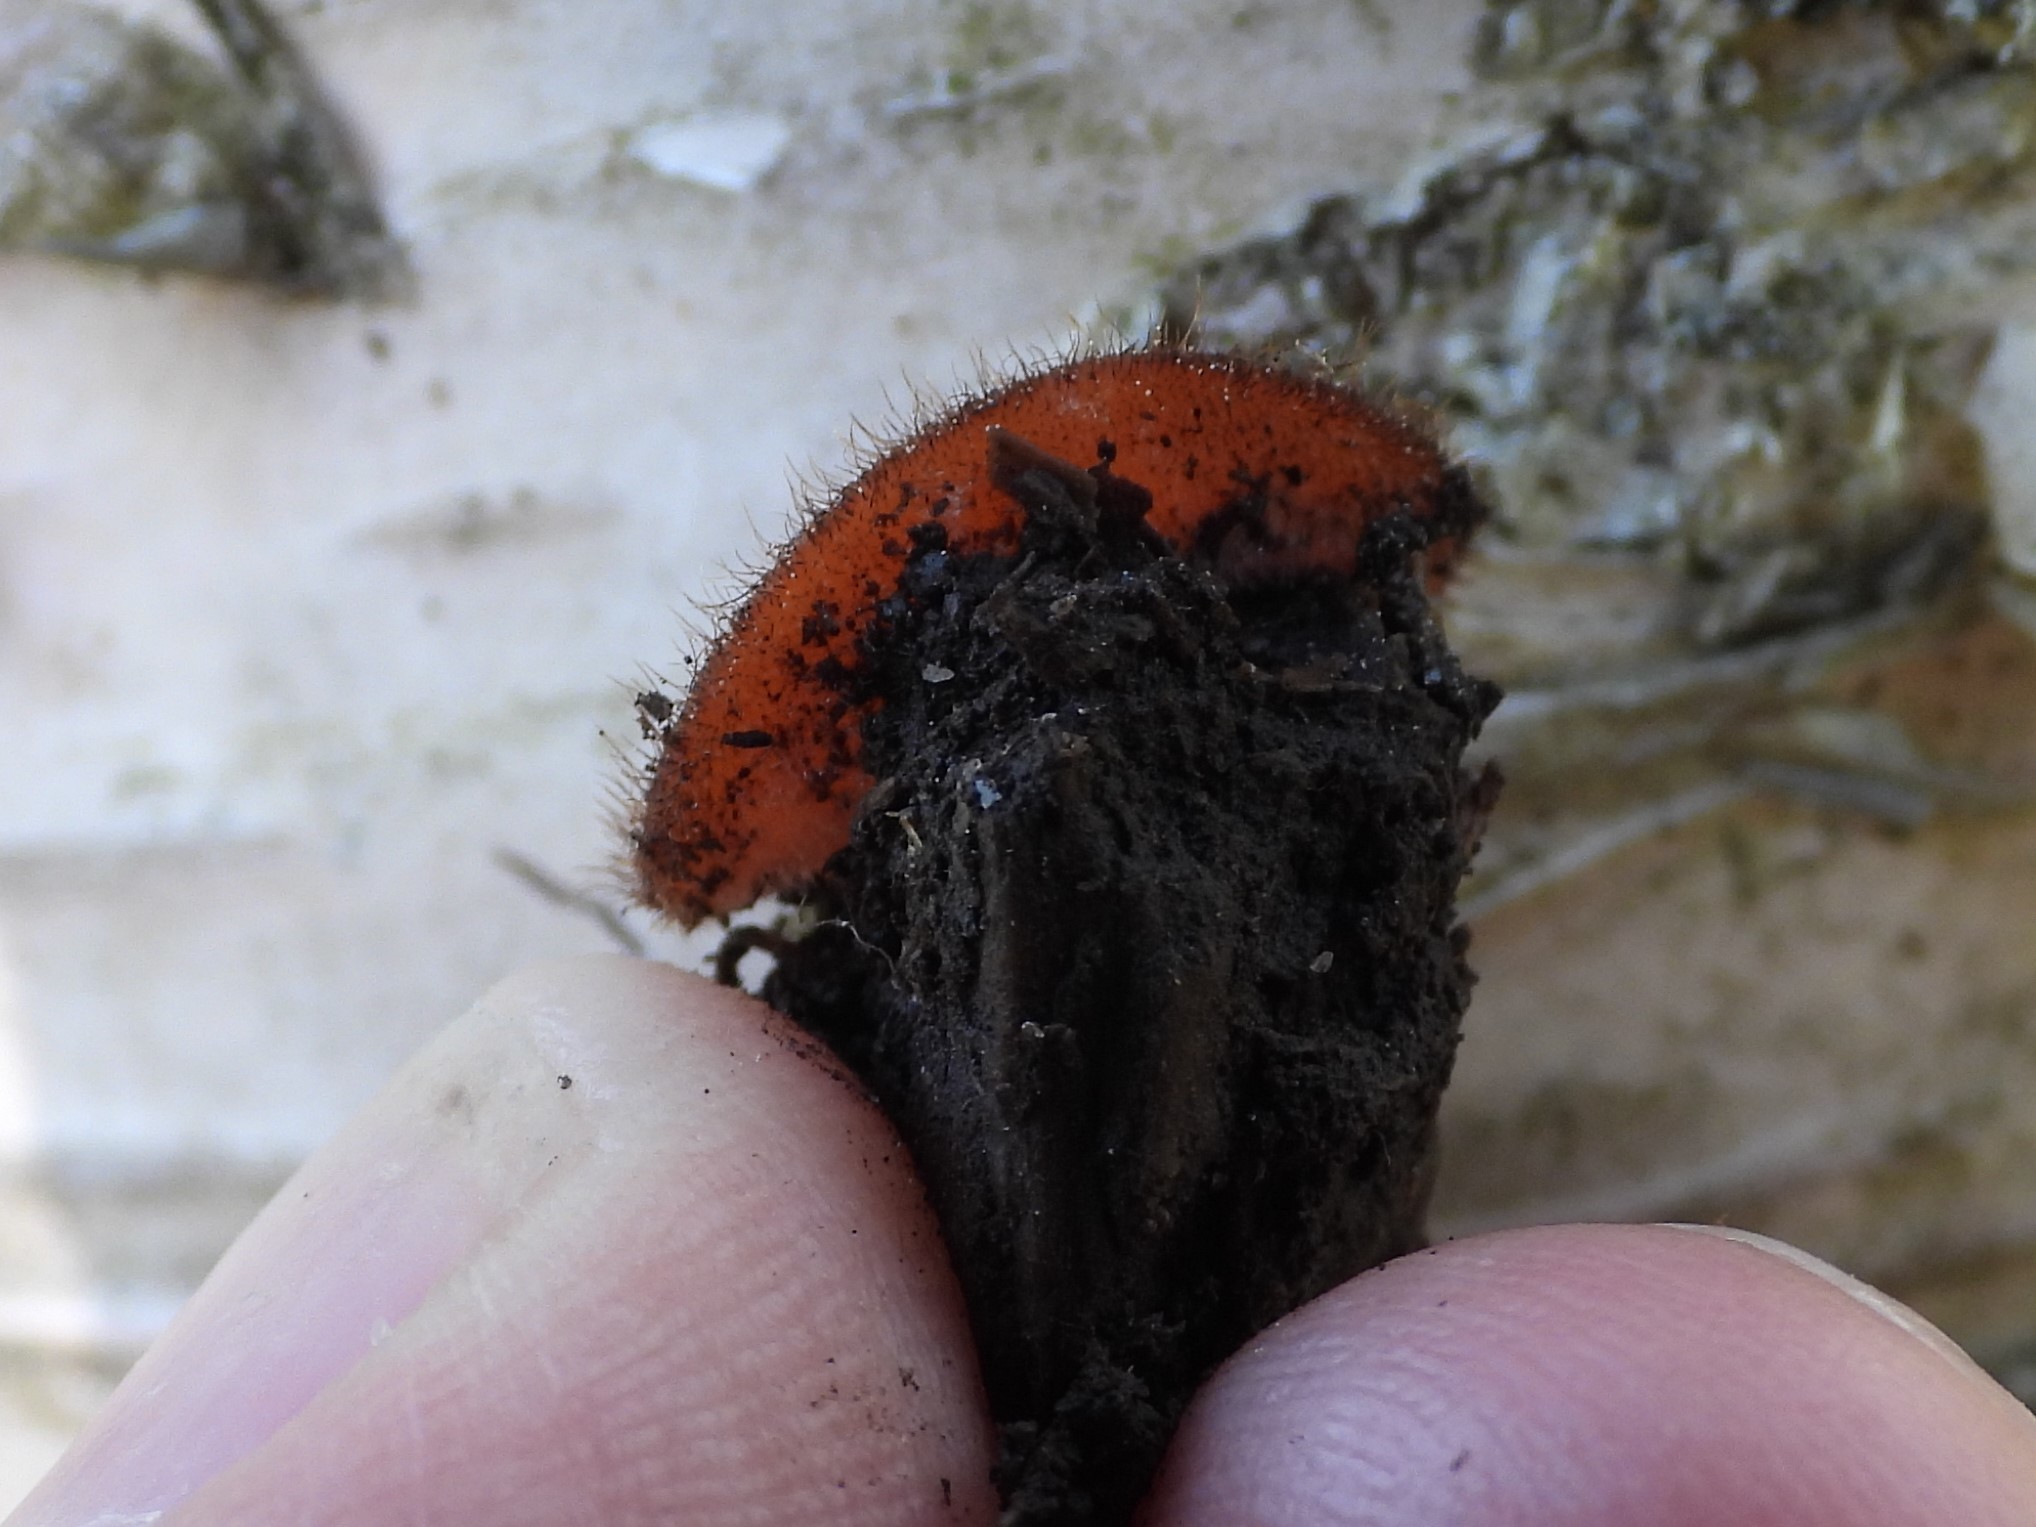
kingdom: Fungi
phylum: Ascomycota
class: Pezizomycetes
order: Pezizales
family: Pyronemataceae
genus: Scutellinia
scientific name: Scutellinia
